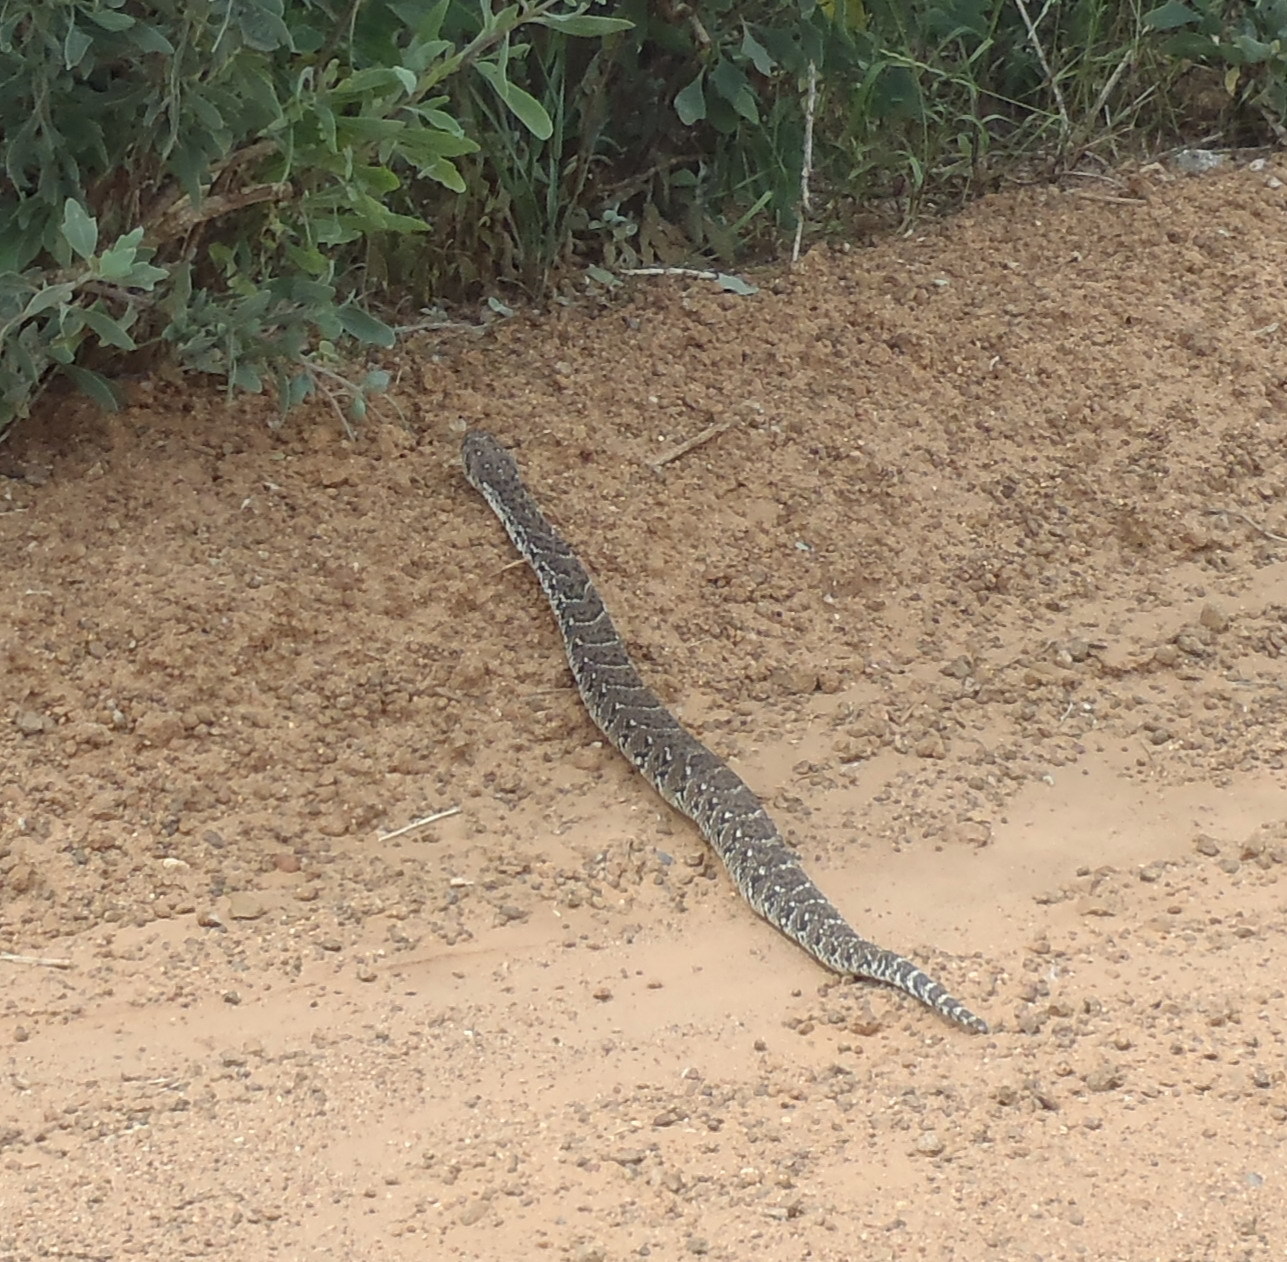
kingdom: Animalia
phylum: Chordata
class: Squamata
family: Viperidae
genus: Bitis
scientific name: Bitis arietans
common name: Puff adder
